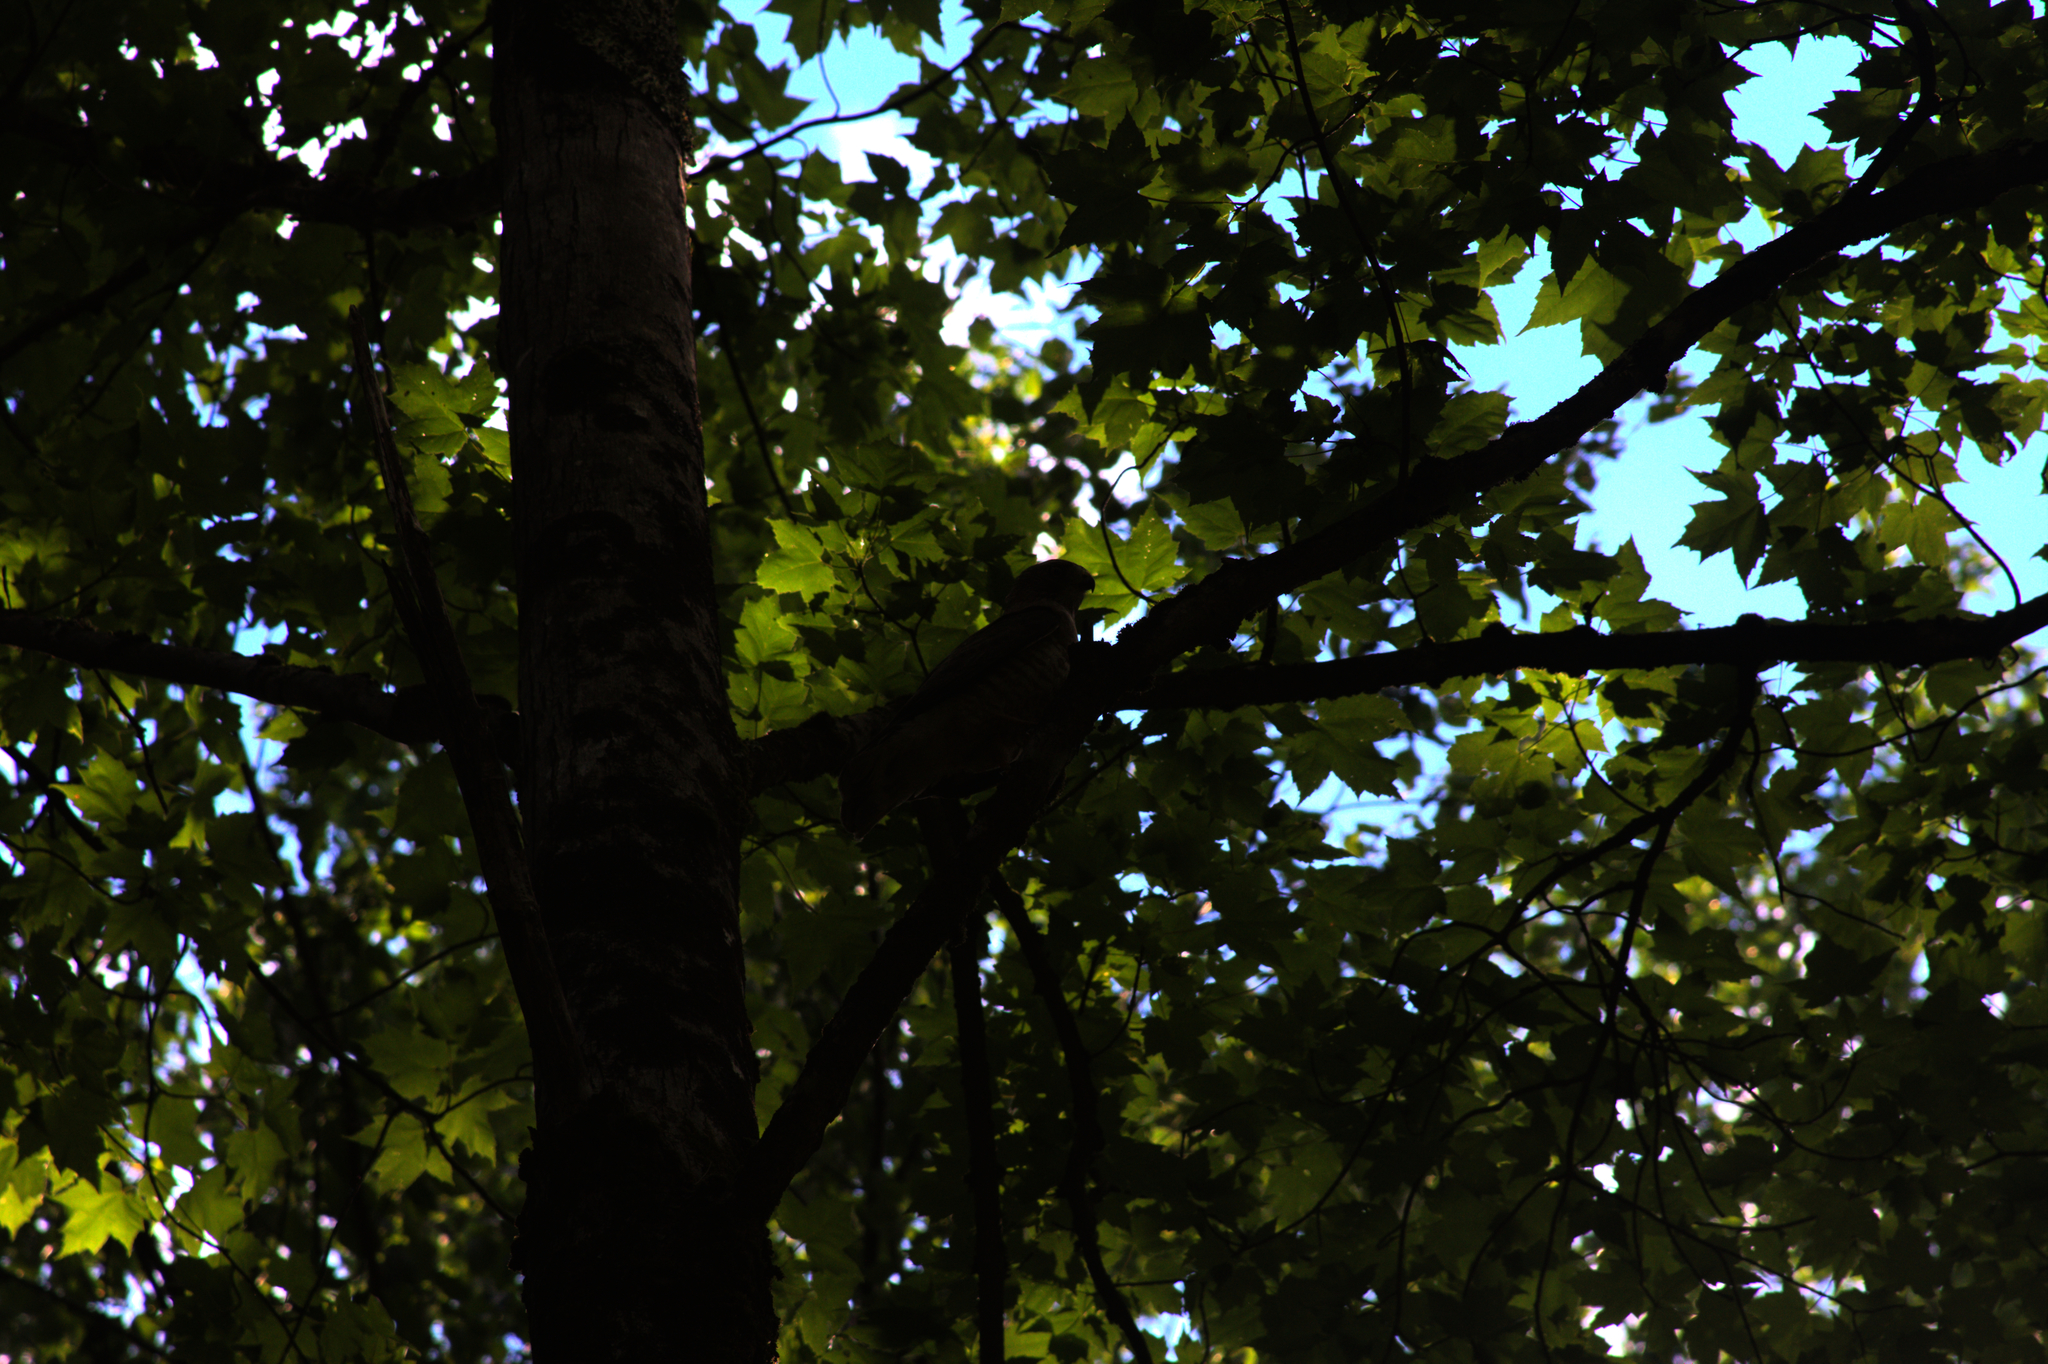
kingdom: Animalia
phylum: Chordata
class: Aves
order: Accipitriformes
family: Accipitridae
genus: Buteo
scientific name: Buteo platypterus
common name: Broad-winged hawk
